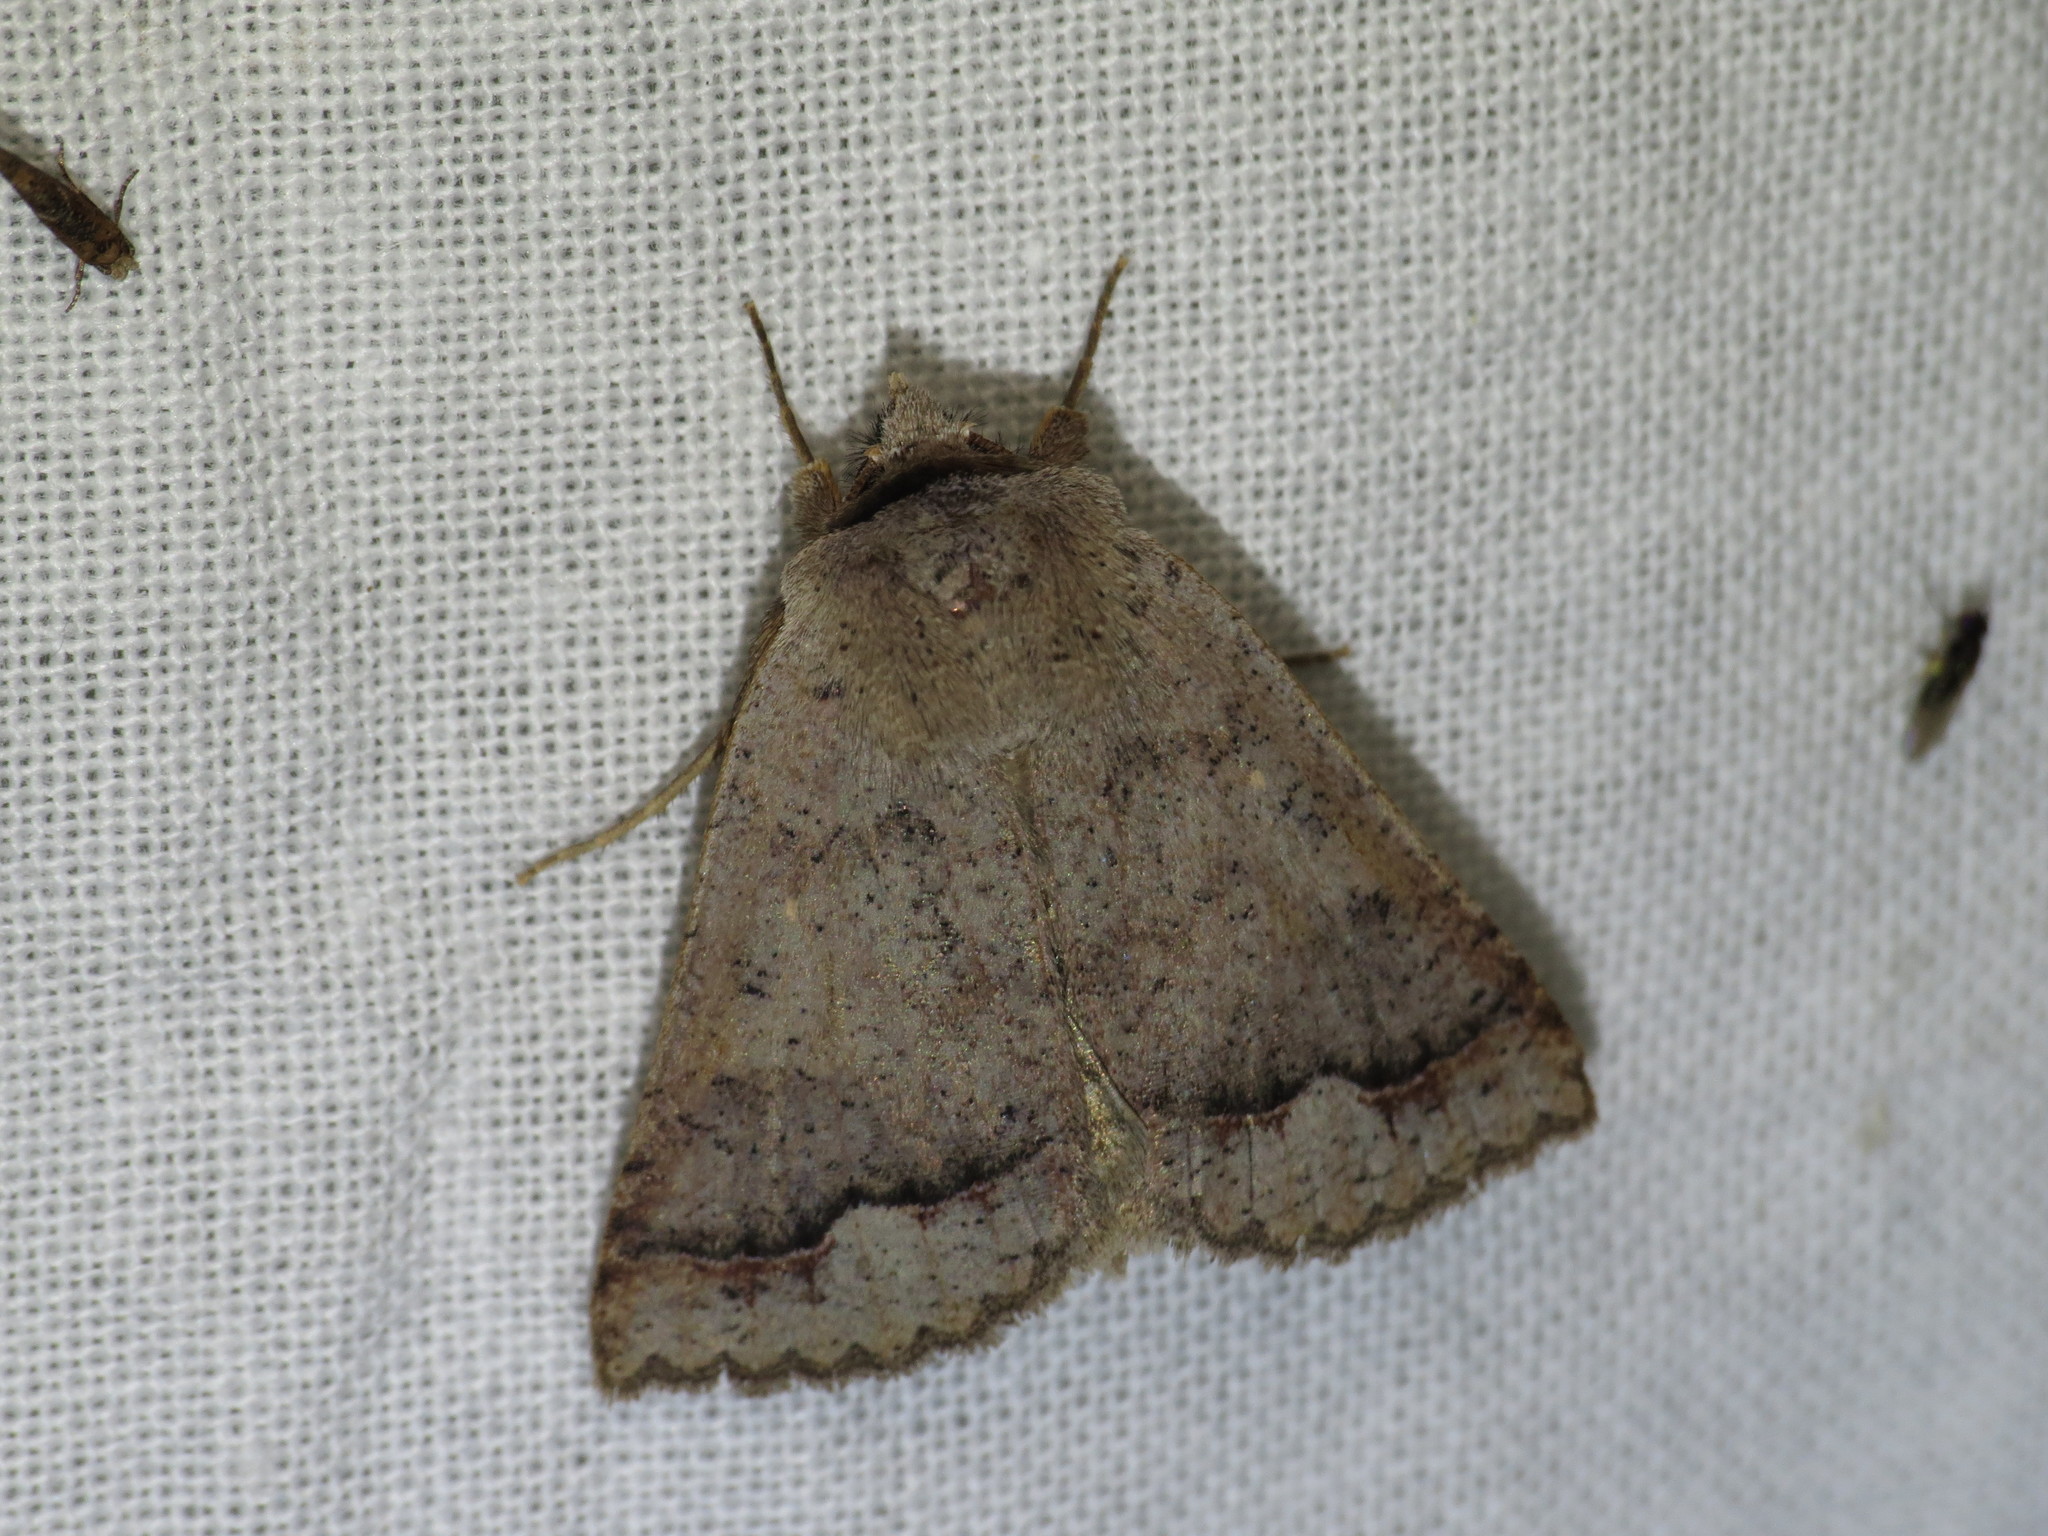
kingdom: Animalia
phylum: Arthropoda
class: Insecta
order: Lepidoptera
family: Erebidae
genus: Pantydia
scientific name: Pantydia sparsa
